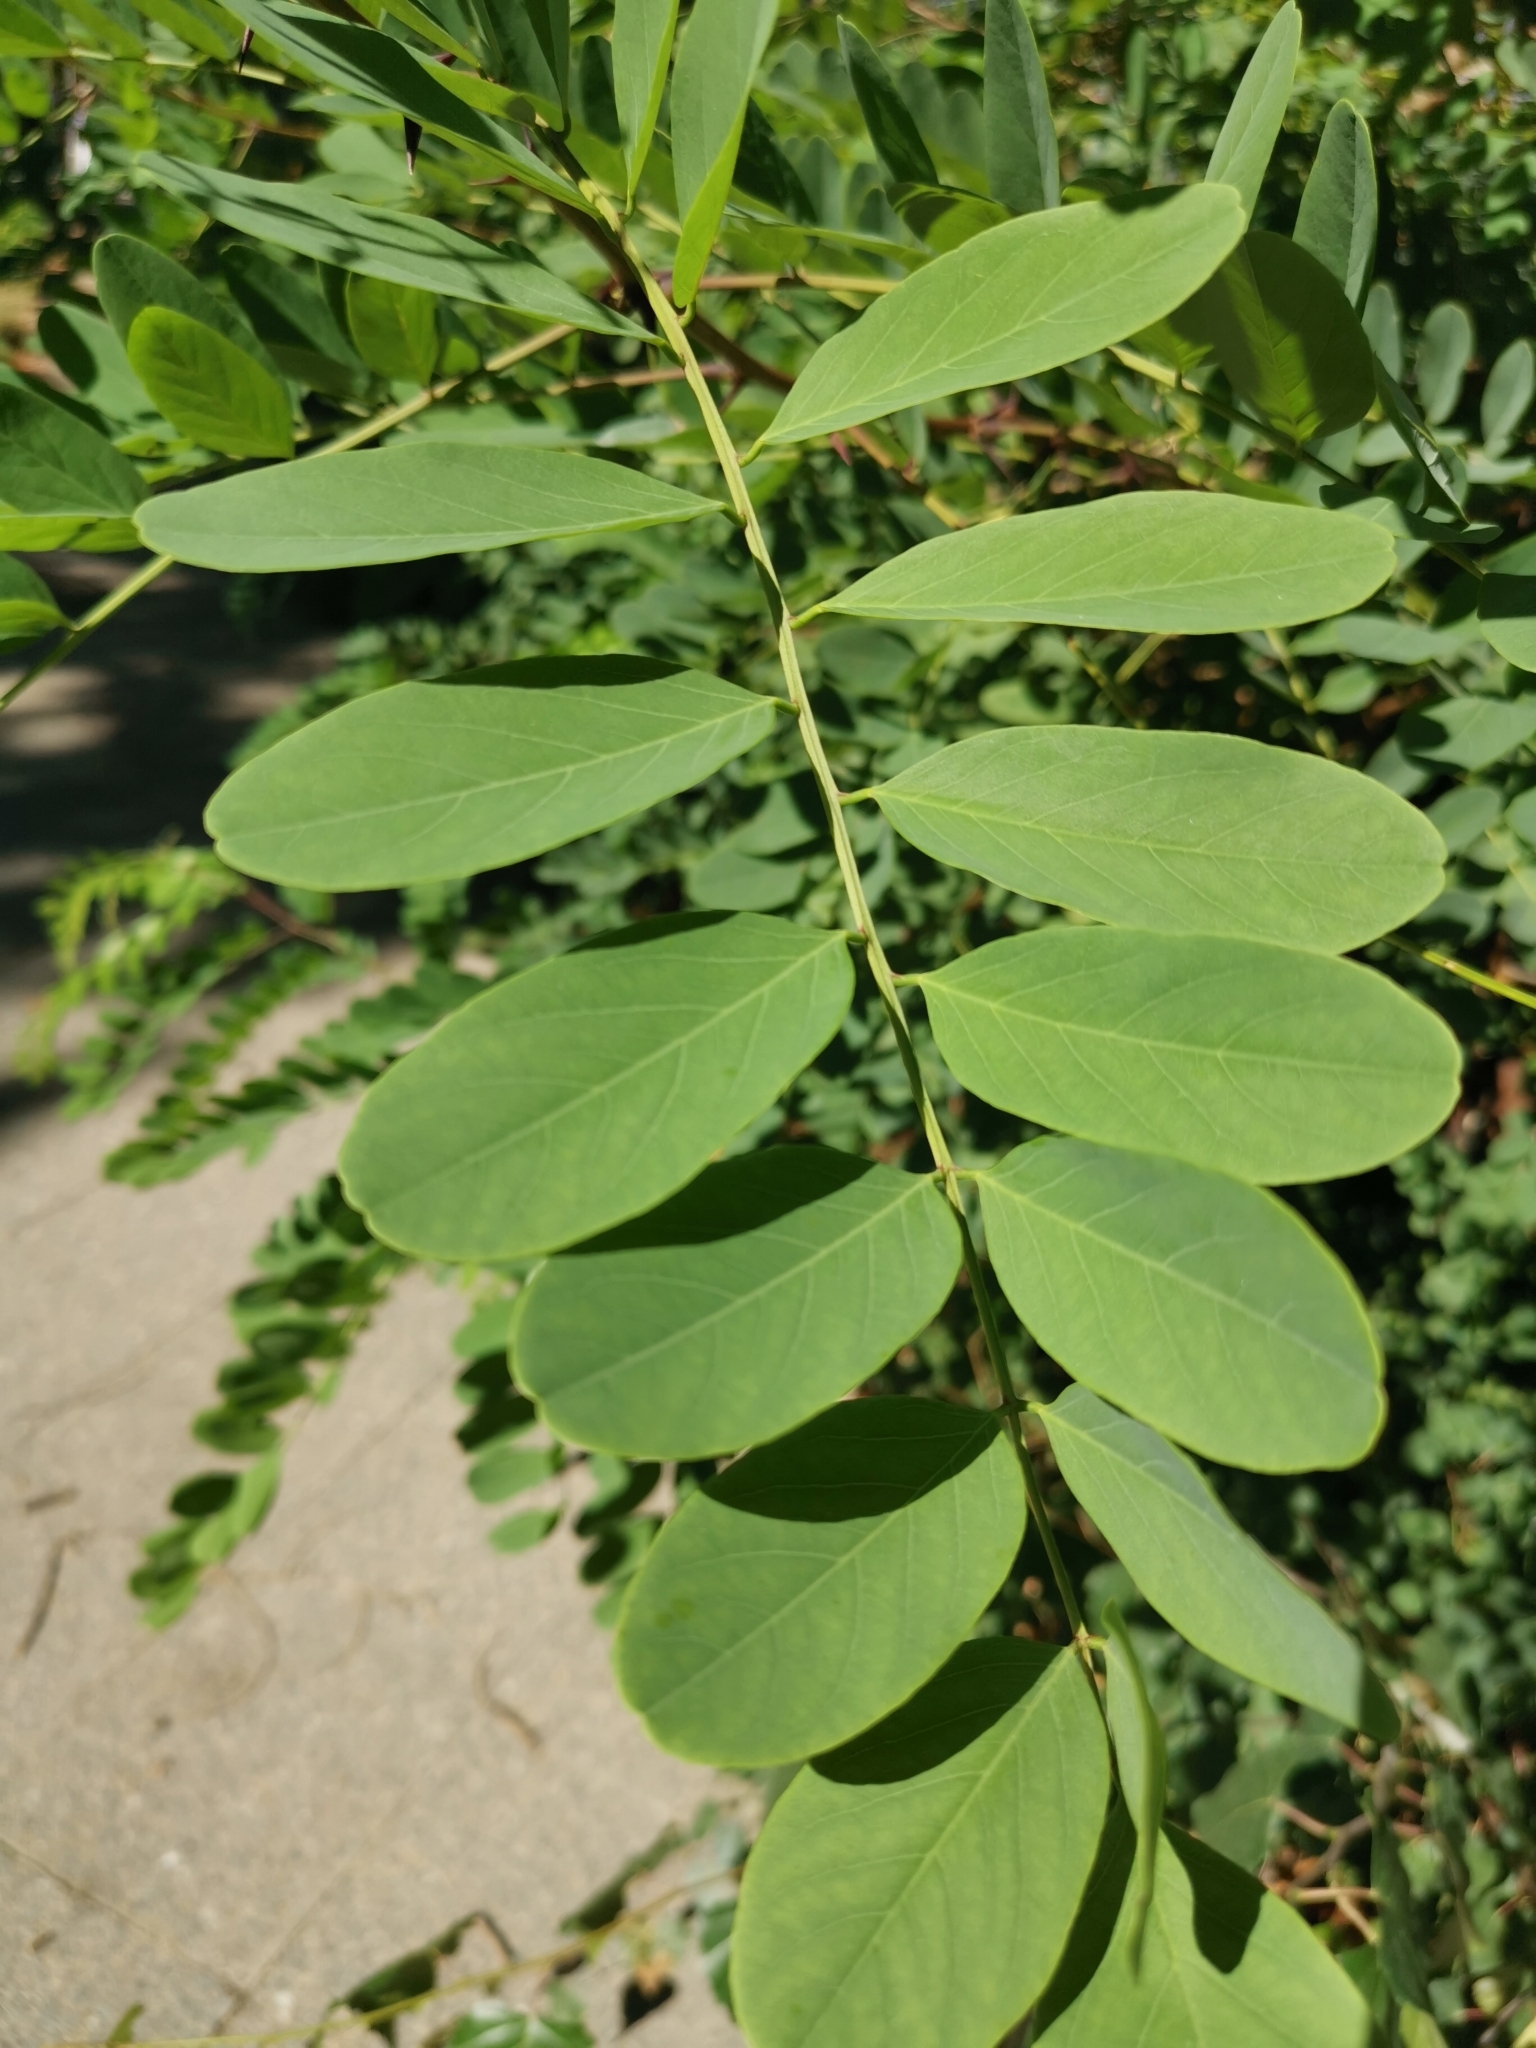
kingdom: Plantae
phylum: Tracheophyta
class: Magnoliopsida
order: Fabales
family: Fabaceae
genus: Robinia
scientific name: Robinia pseudoacacia
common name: Black locust
